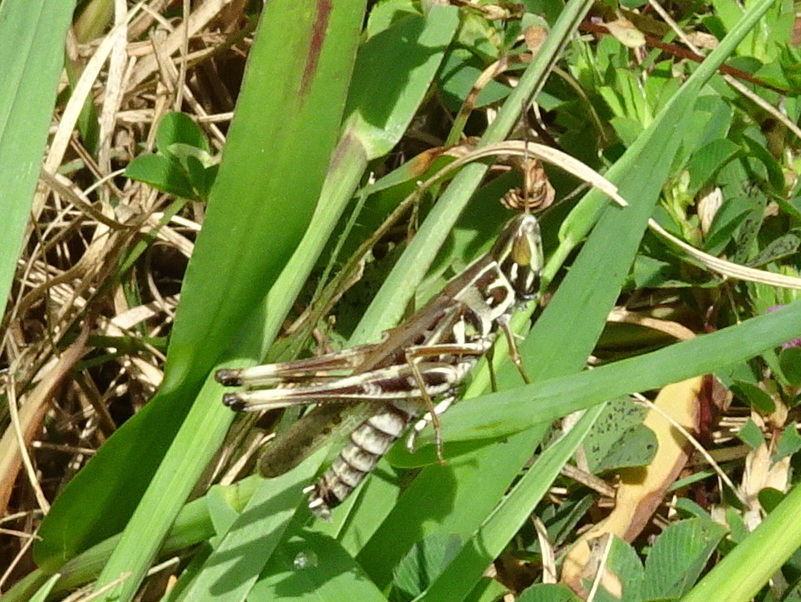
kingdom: Animalia
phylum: Arthropoda
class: Insecta
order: Orthoptera
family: Acrididae
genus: Syrbula
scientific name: Syrbula admirabilis
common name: Handsome grasshopper
